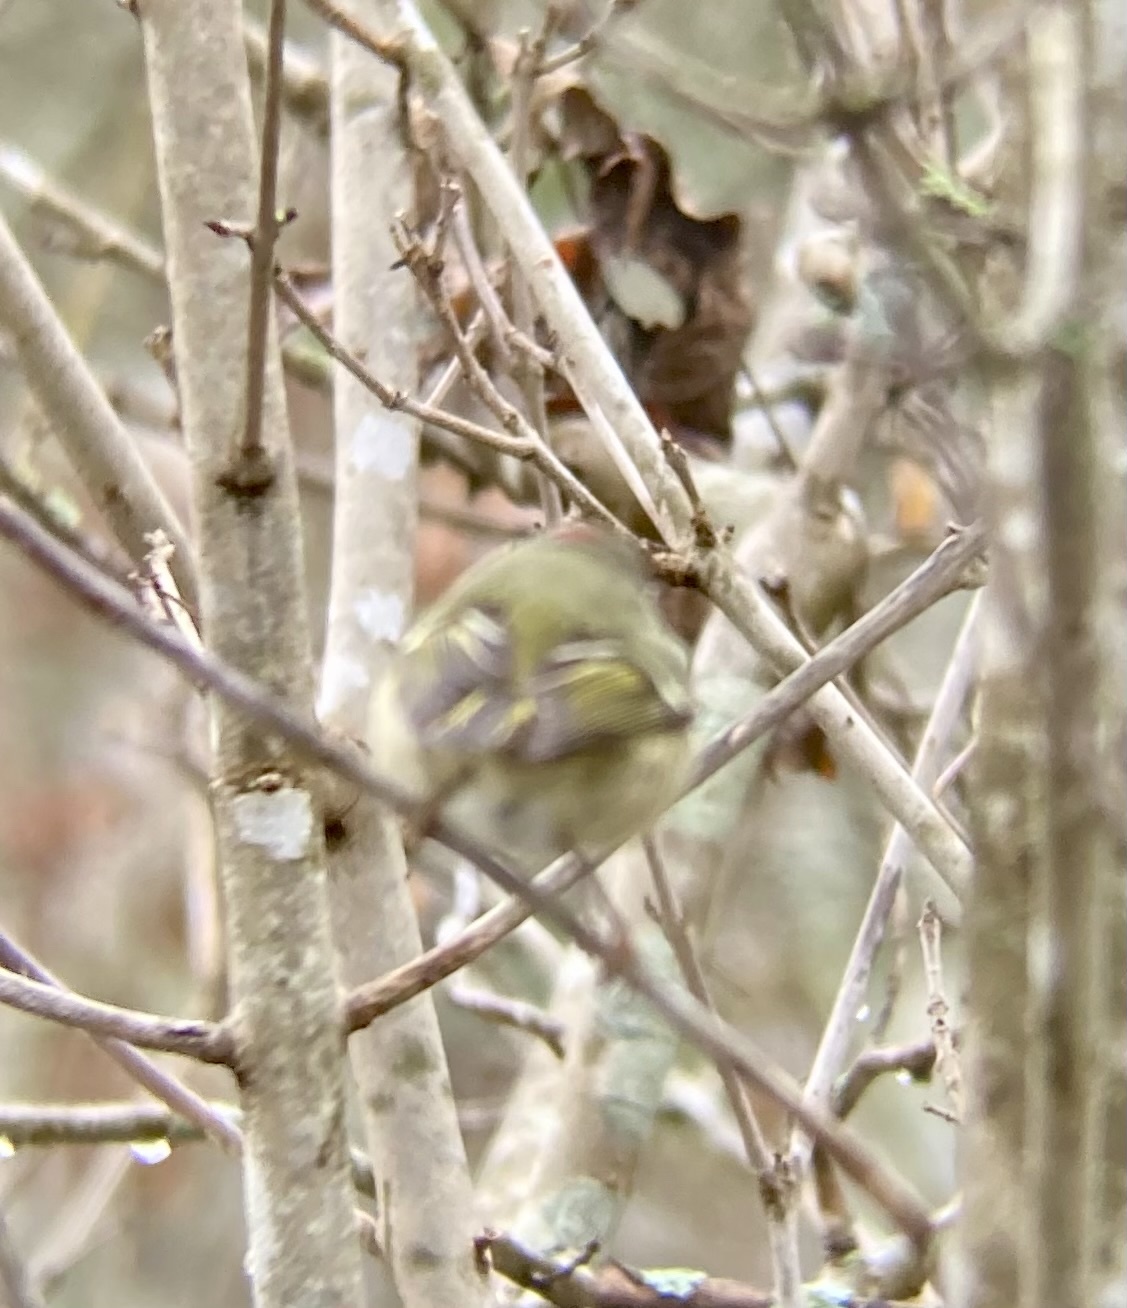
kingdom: Animalia
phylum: Chordata
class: Aves
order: Passeriformes
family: Regulidae
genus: Regulus
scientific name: Regulus calendula
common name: Ruby-crowned kinglet
